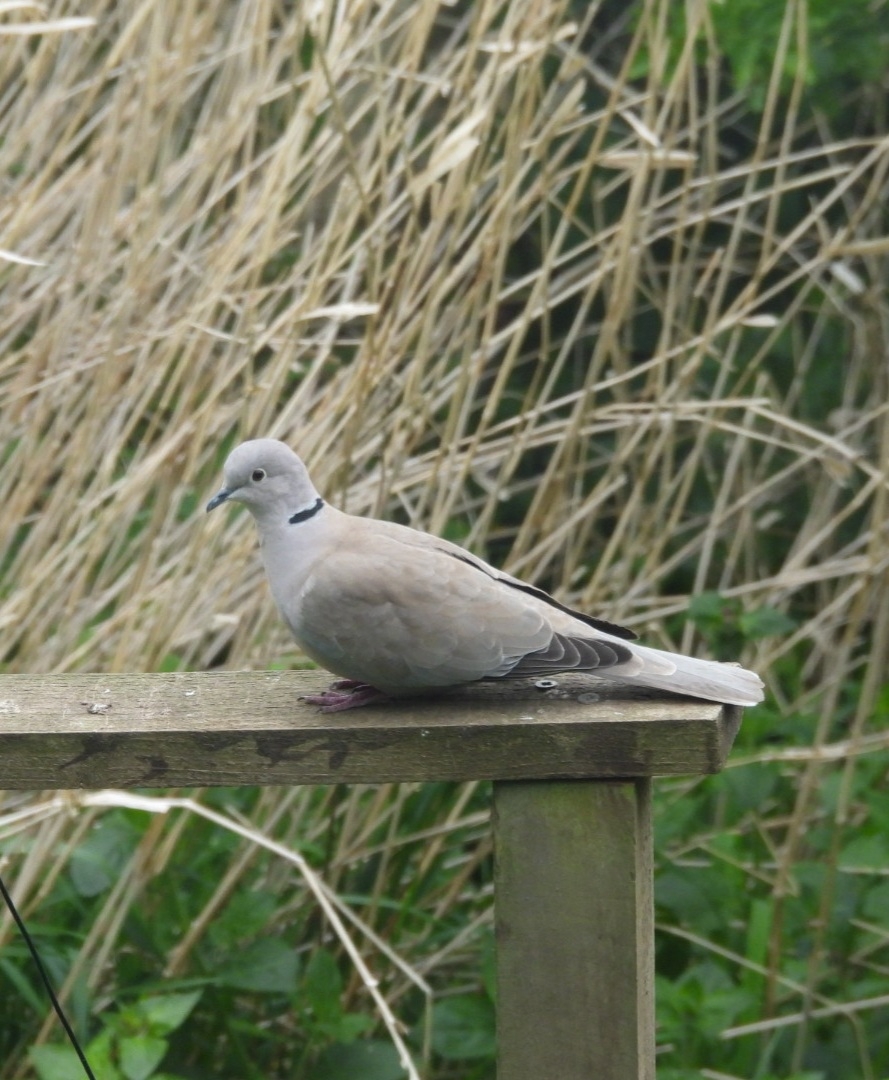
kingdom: Animalia
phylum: Chordata
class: Aves
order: Columbiformes
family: Columbidae
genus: Streptopelia
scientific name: Streptopelia decaocto
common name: Eurasian collared dove
